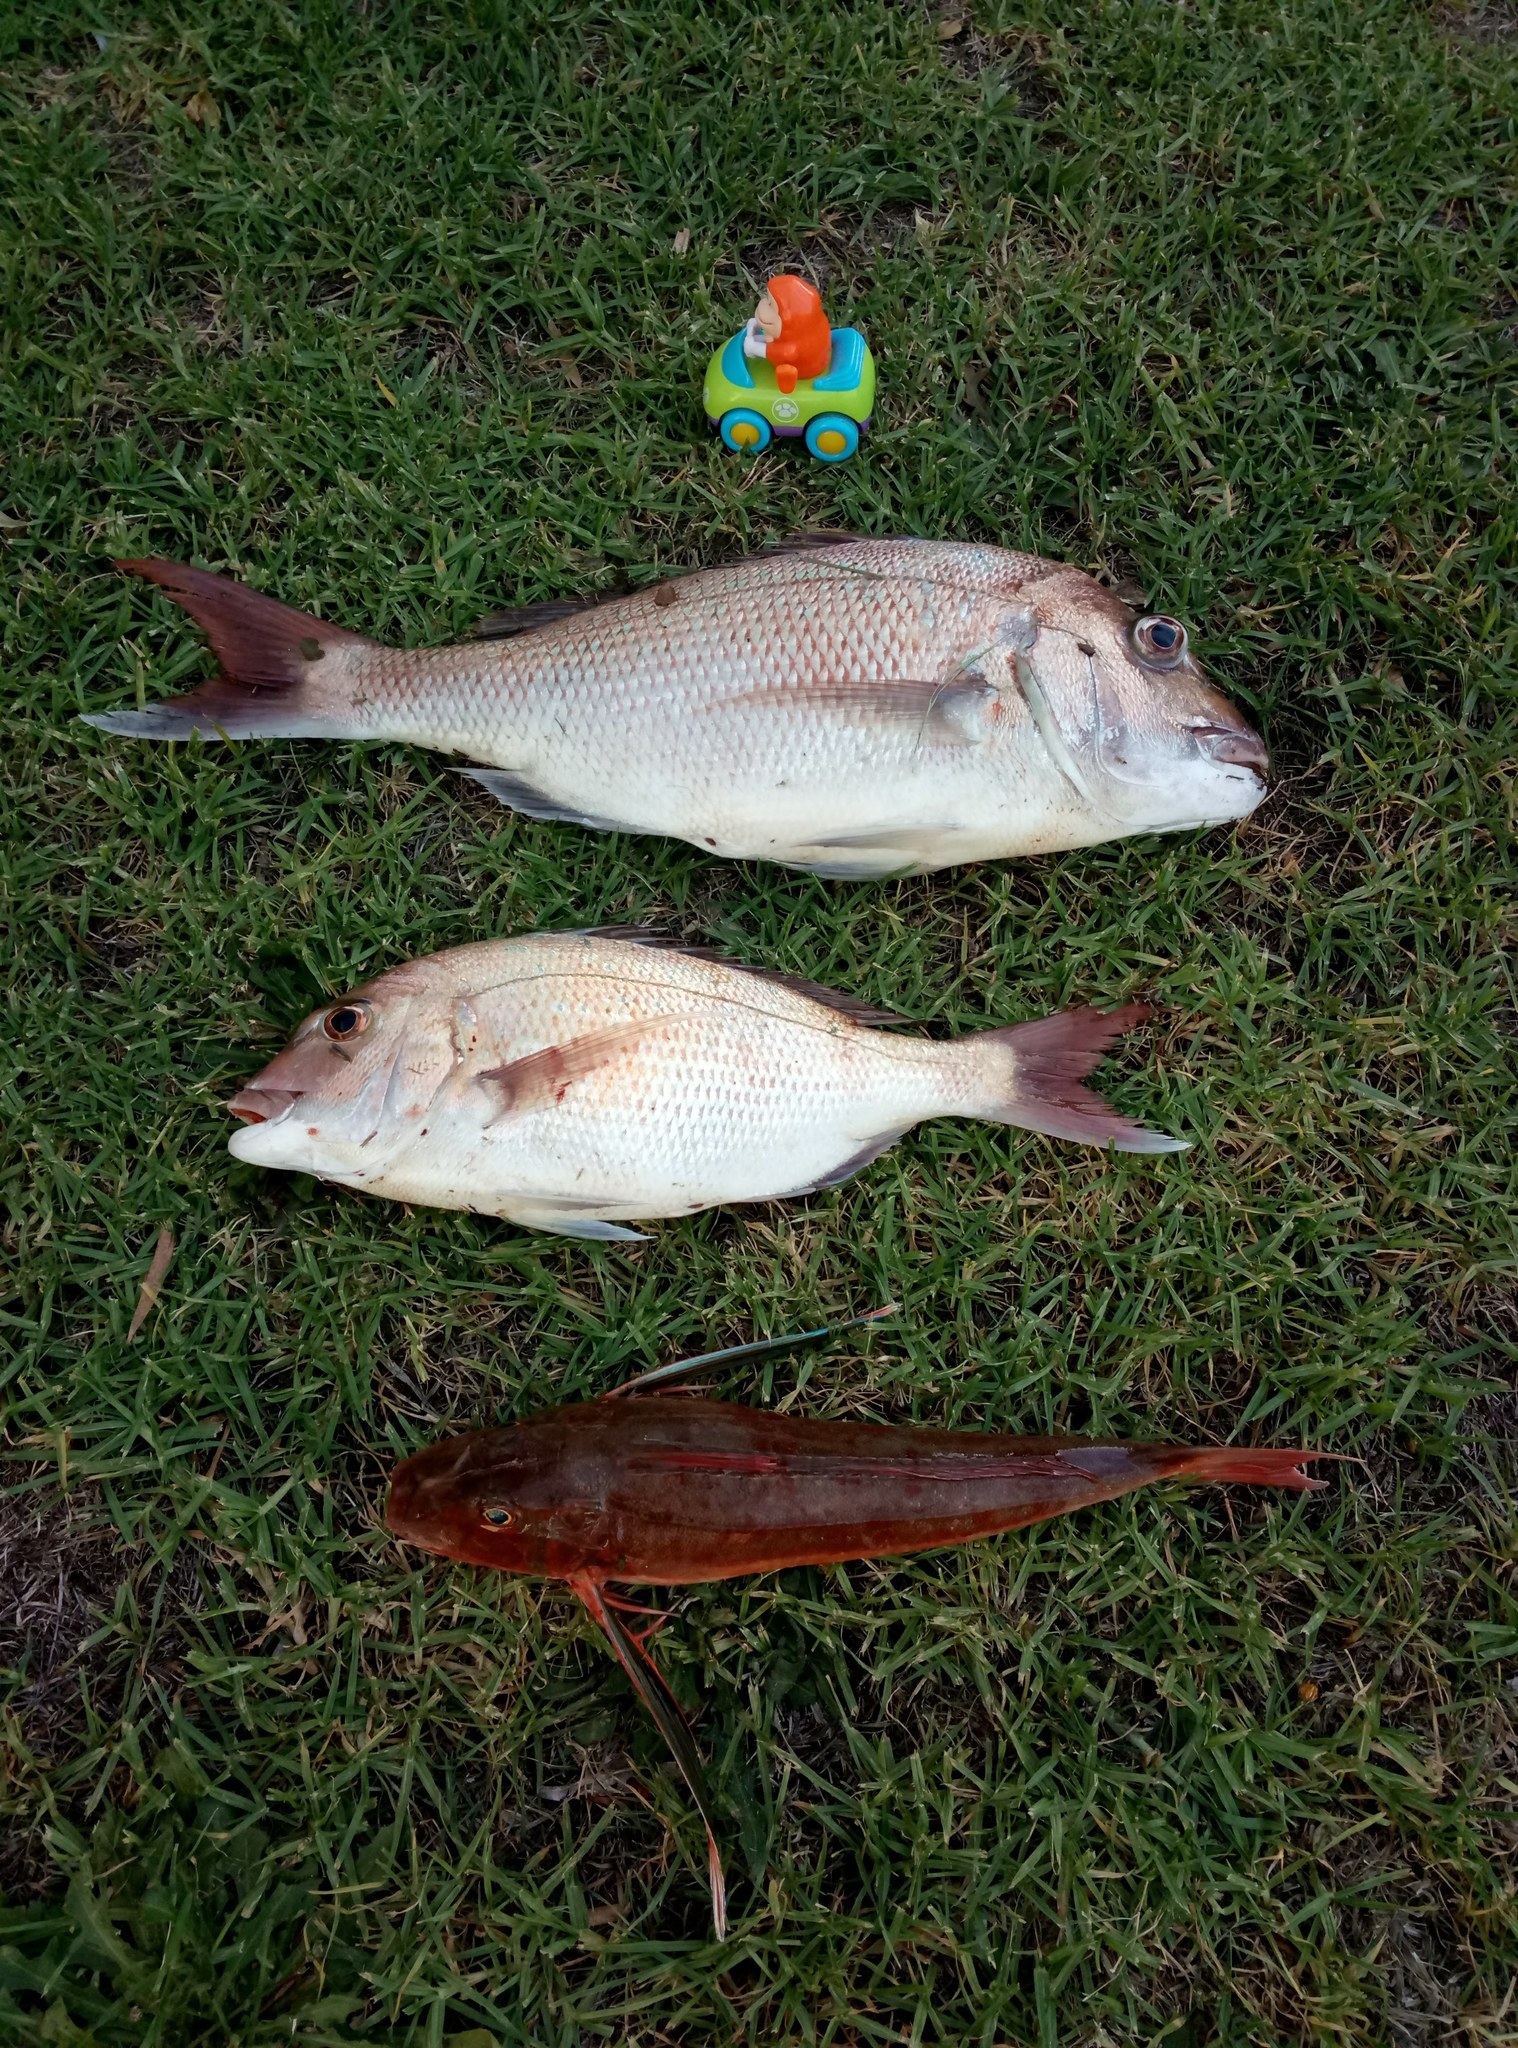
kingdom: Animalia
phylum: Chordata
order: Scorpaeniformes
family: Triglidae
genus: Chelidonichthys
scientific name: Chelidonichthys kumu
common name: Bluefin gurnard
